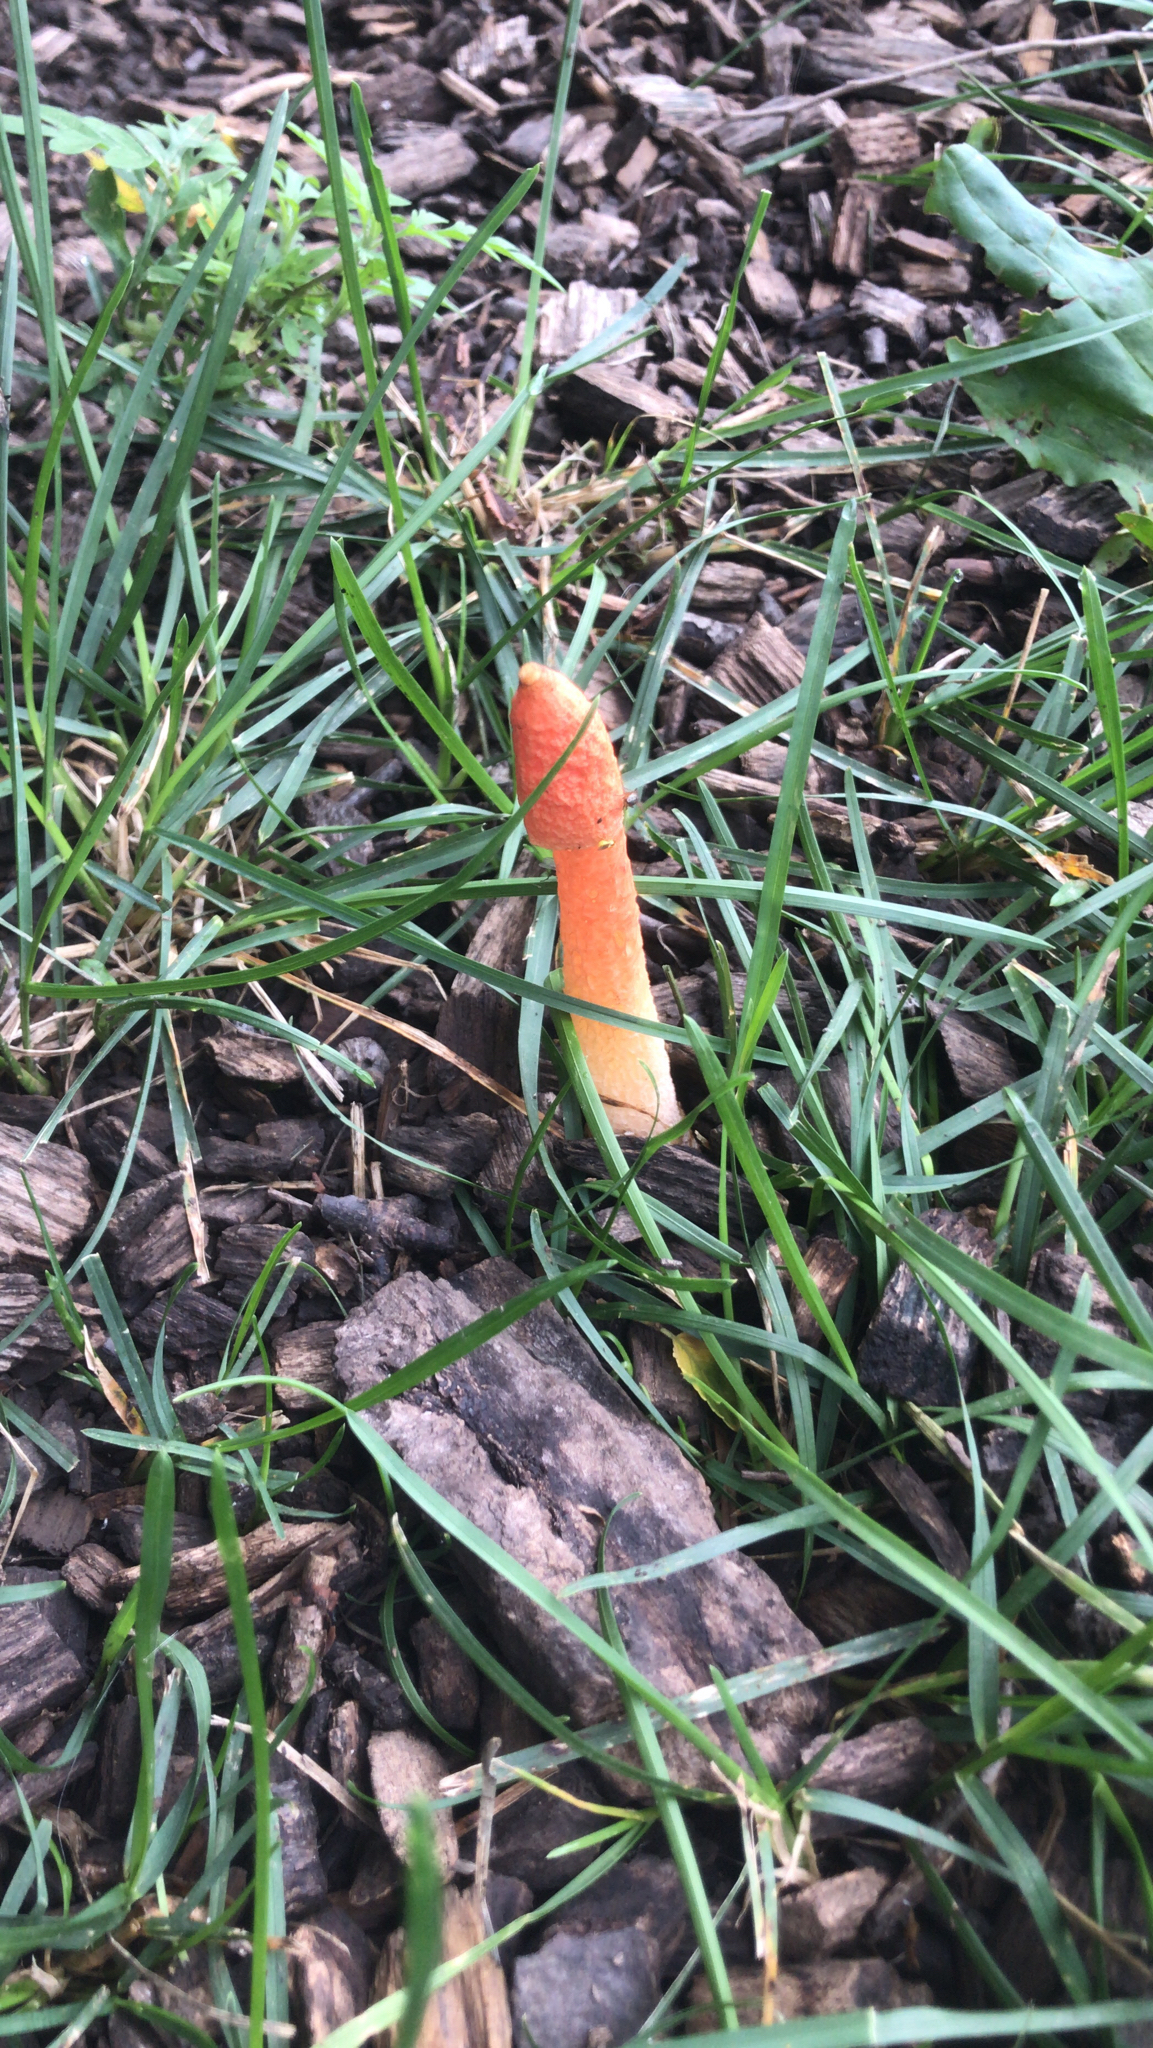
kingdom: Fungi
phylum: Basidiomycota
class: Agaricomycetes
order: Phallales
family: Phallaceae
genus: Phallus
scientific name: Phallus rugulosus
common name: Wrinkly stinkhorn
